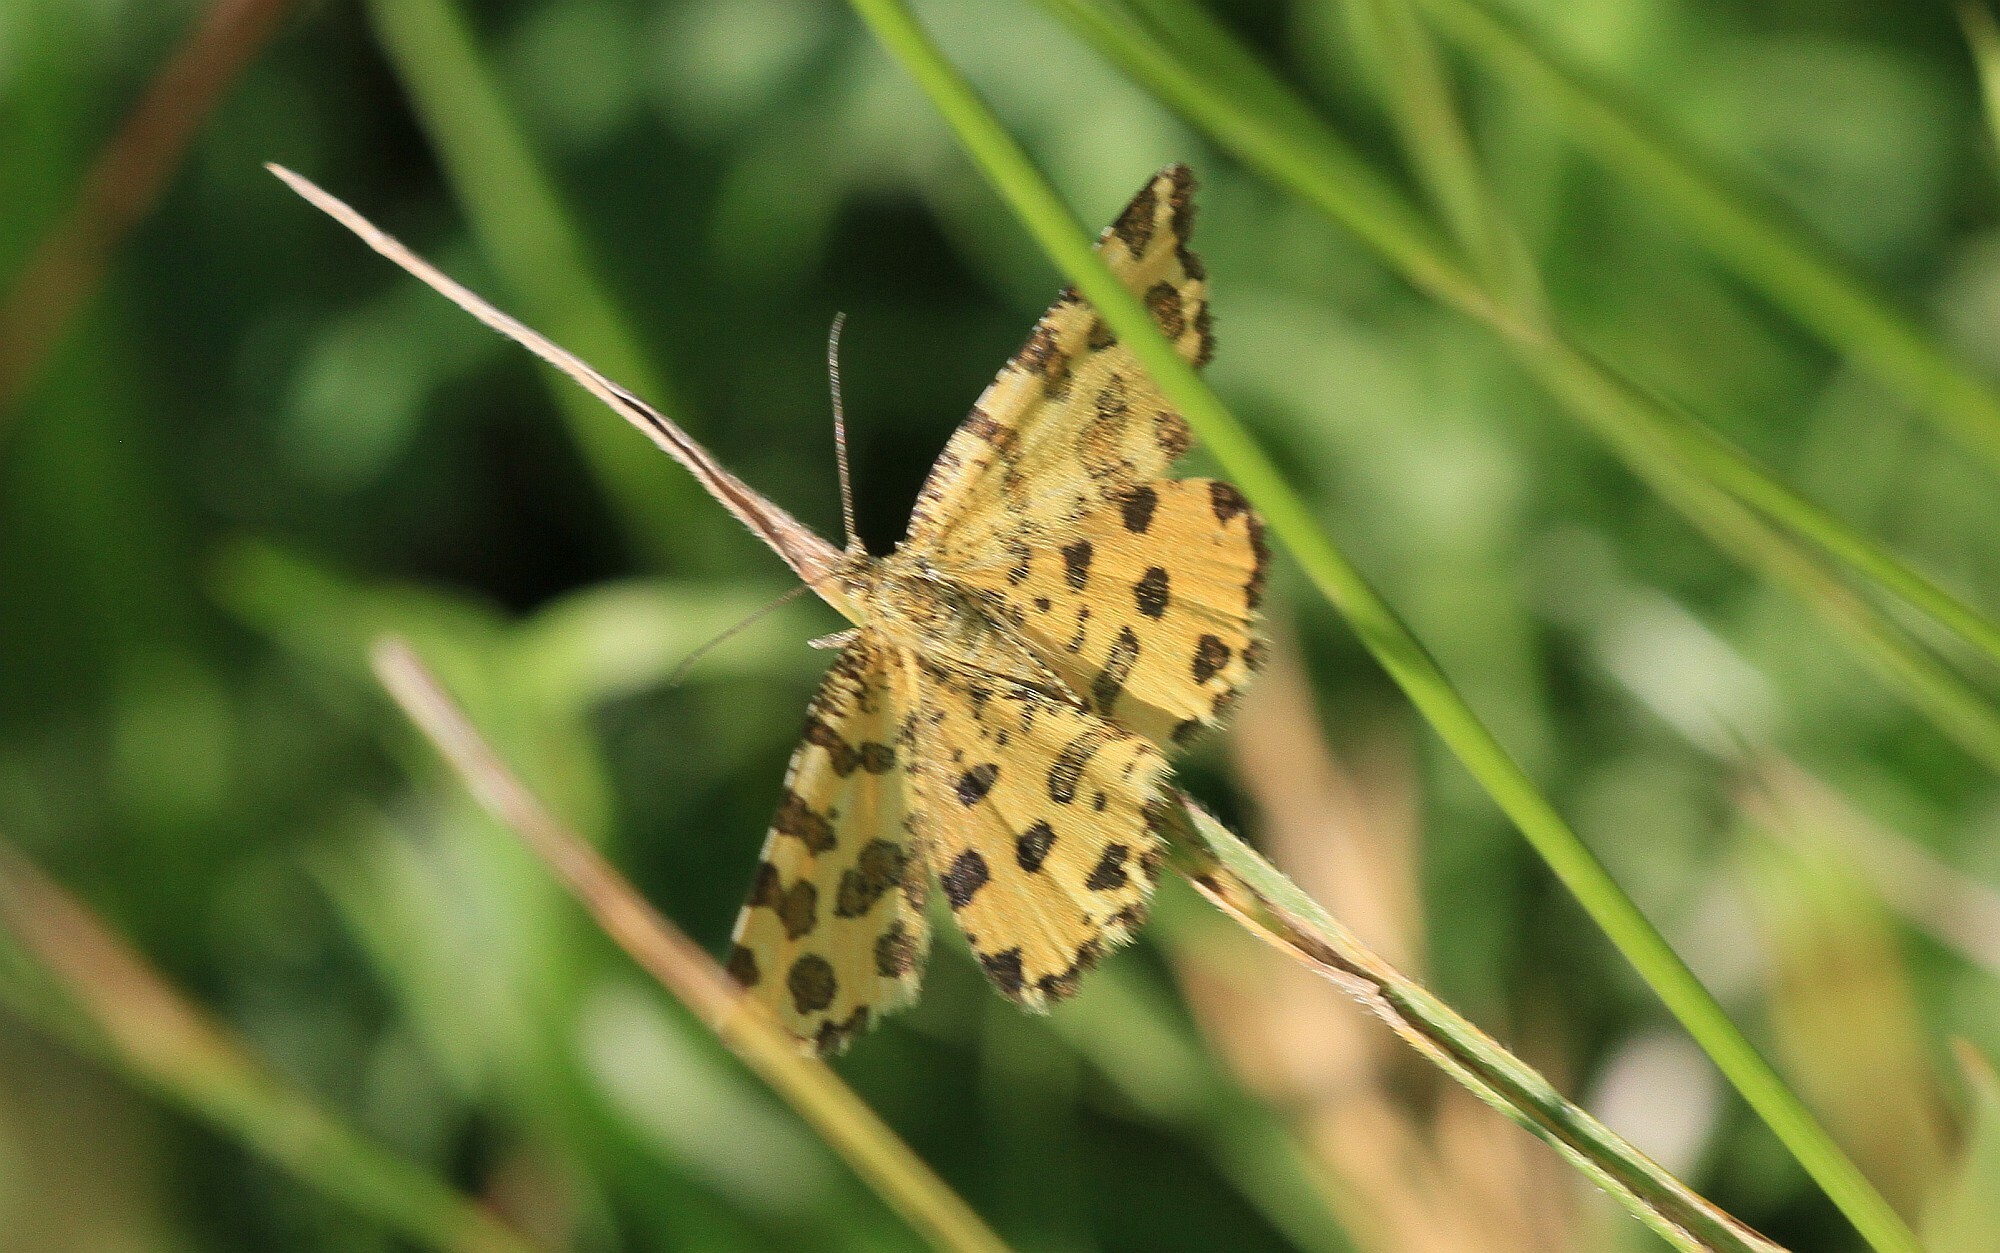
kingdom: Animalia
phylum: Arthropoda
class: Insecta
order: Lepidoptera
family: Geometridae
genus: Pseudopanthera
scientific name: Pseudopanthera macularia
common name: Speckled yellow
